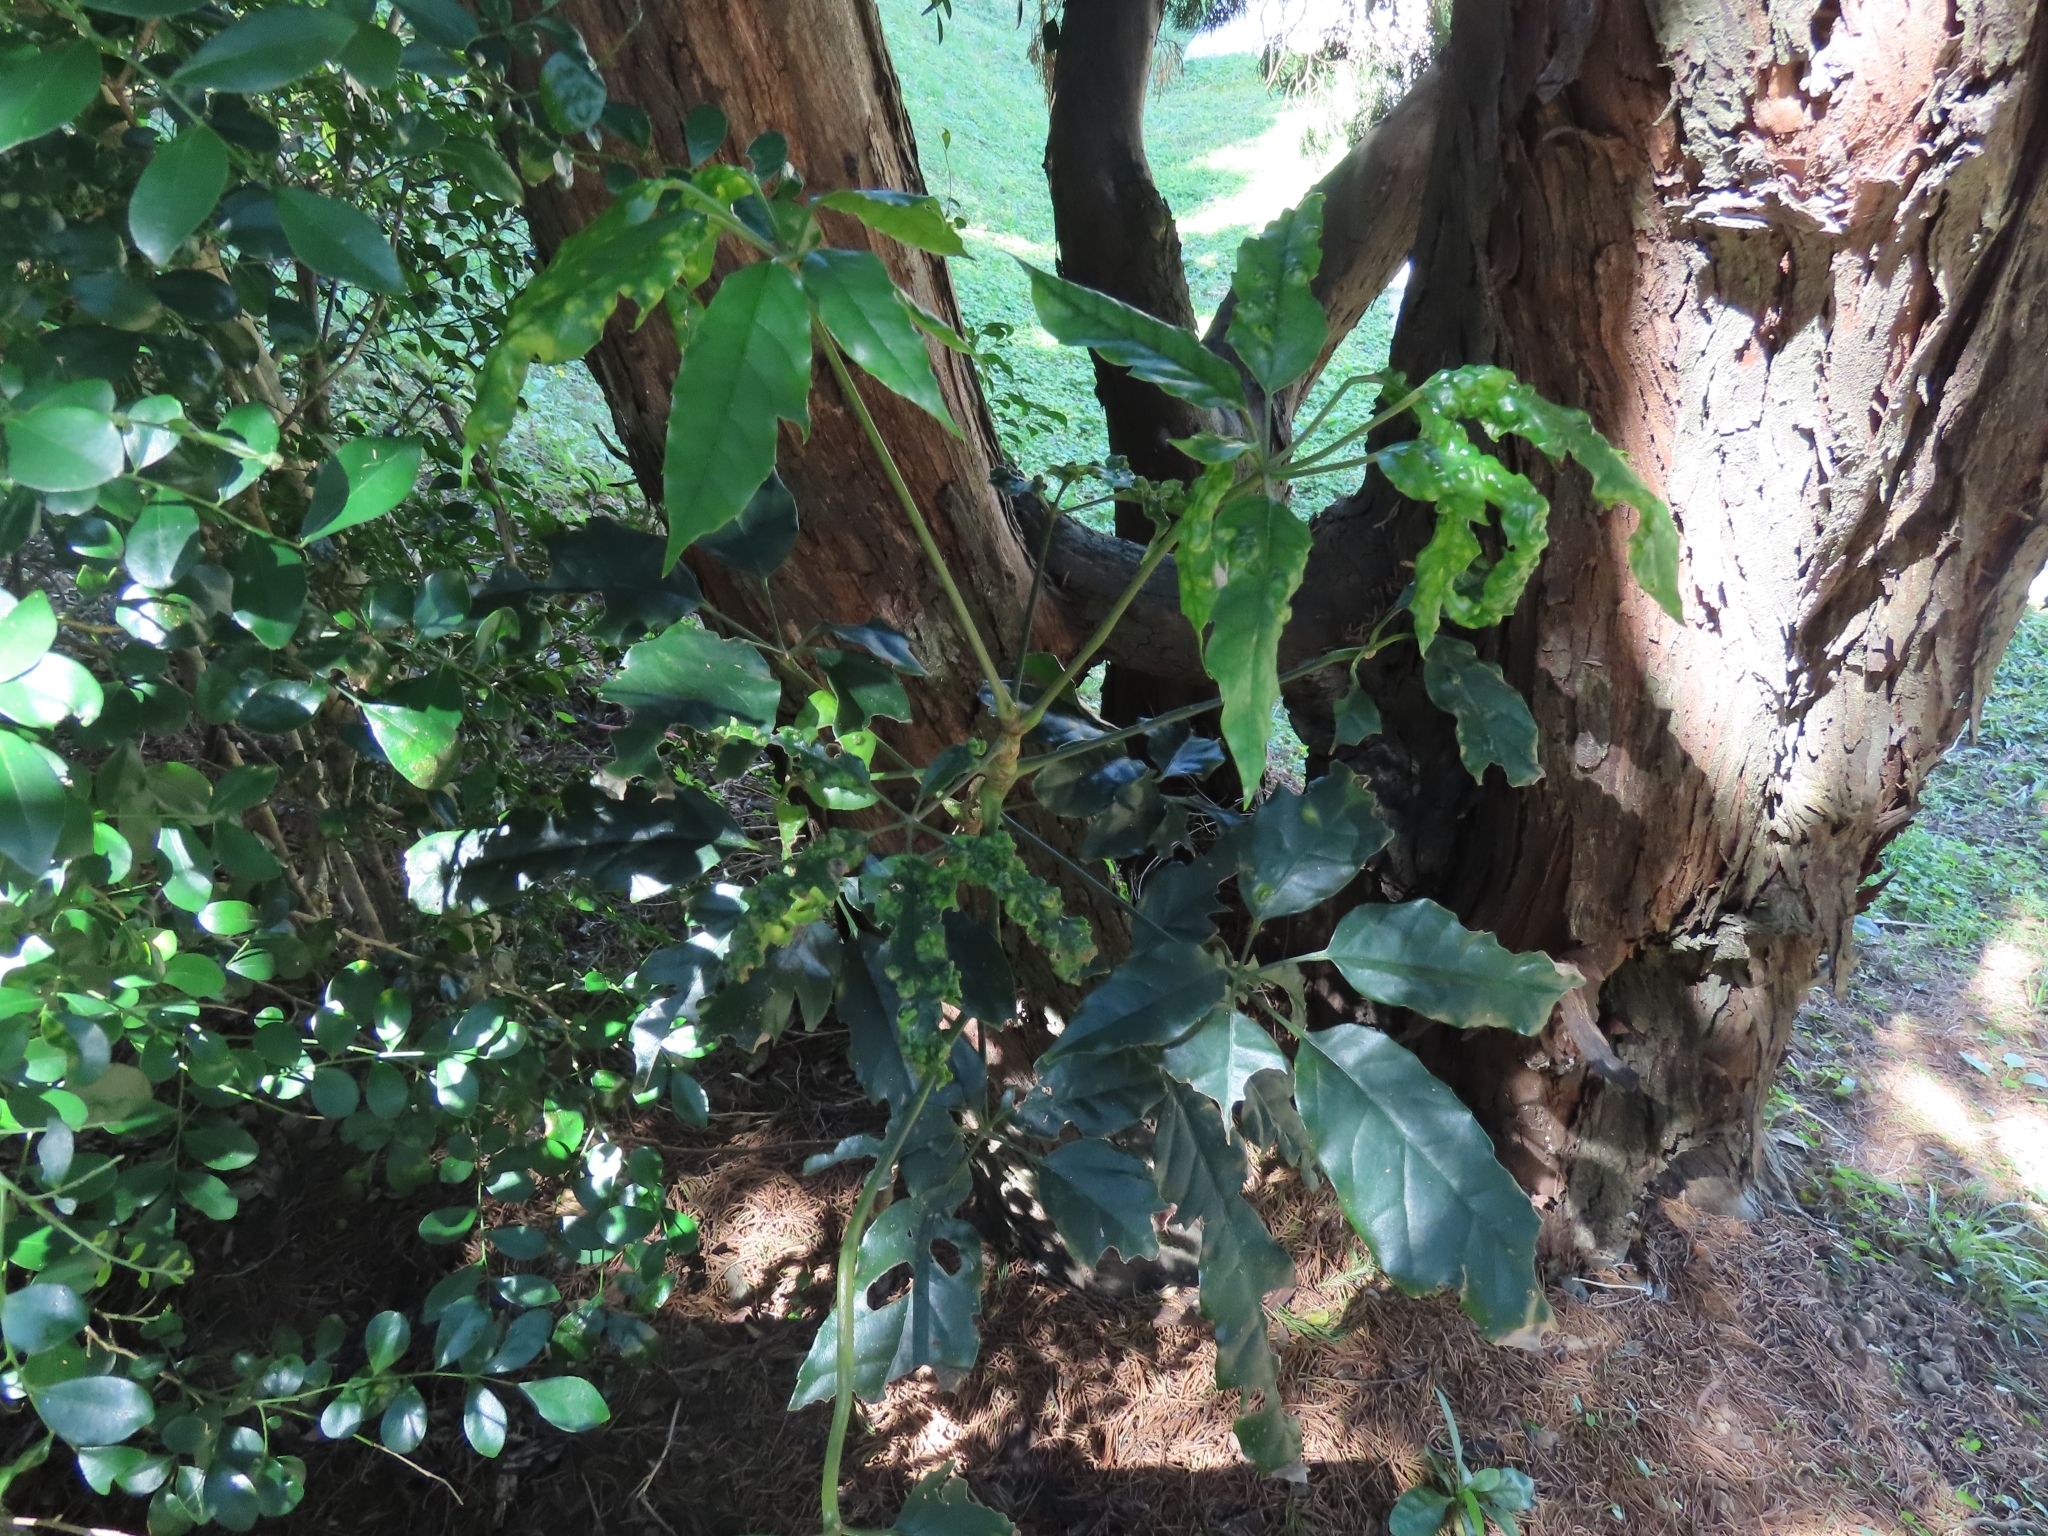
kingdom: Plantae
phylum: Tracheophyta
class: Magnoliopsida
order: Apiales
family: Araliaceae
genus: Heptapleurum
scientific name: Heptapleurum heptaphyllum
